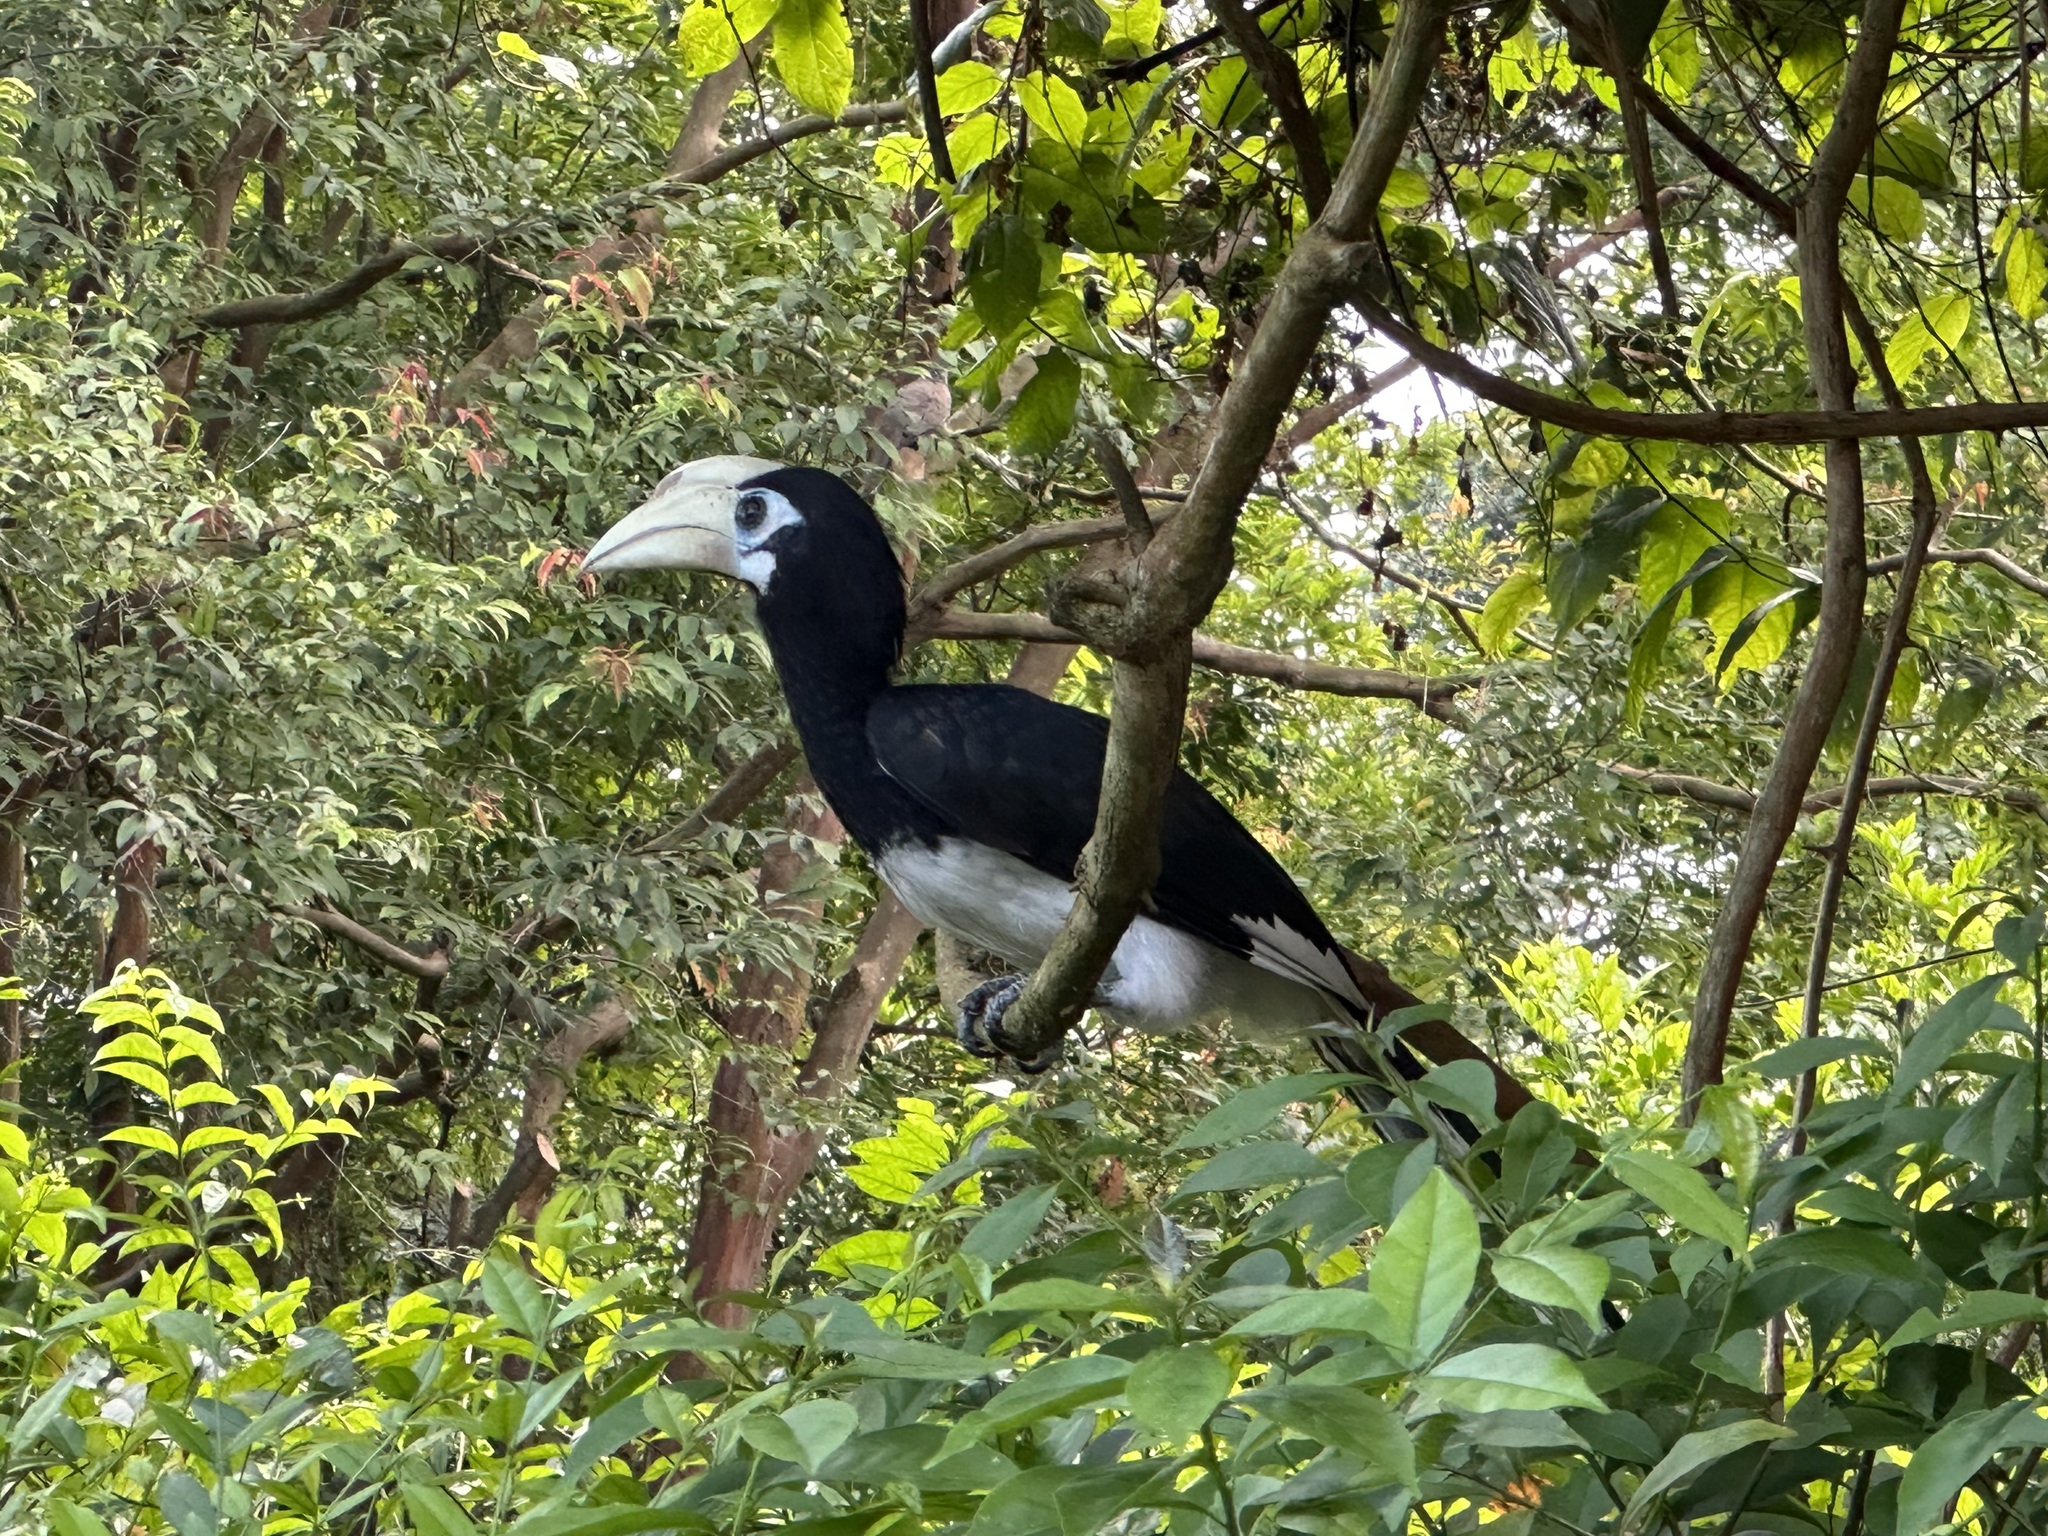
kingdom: Animalia
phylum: Chordata
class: Aves
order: Bucerotiformes
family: Bucerotidae
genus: Anthracoceros
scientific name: Anthracoceros albirostris
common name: Oriental pied-hornbill
